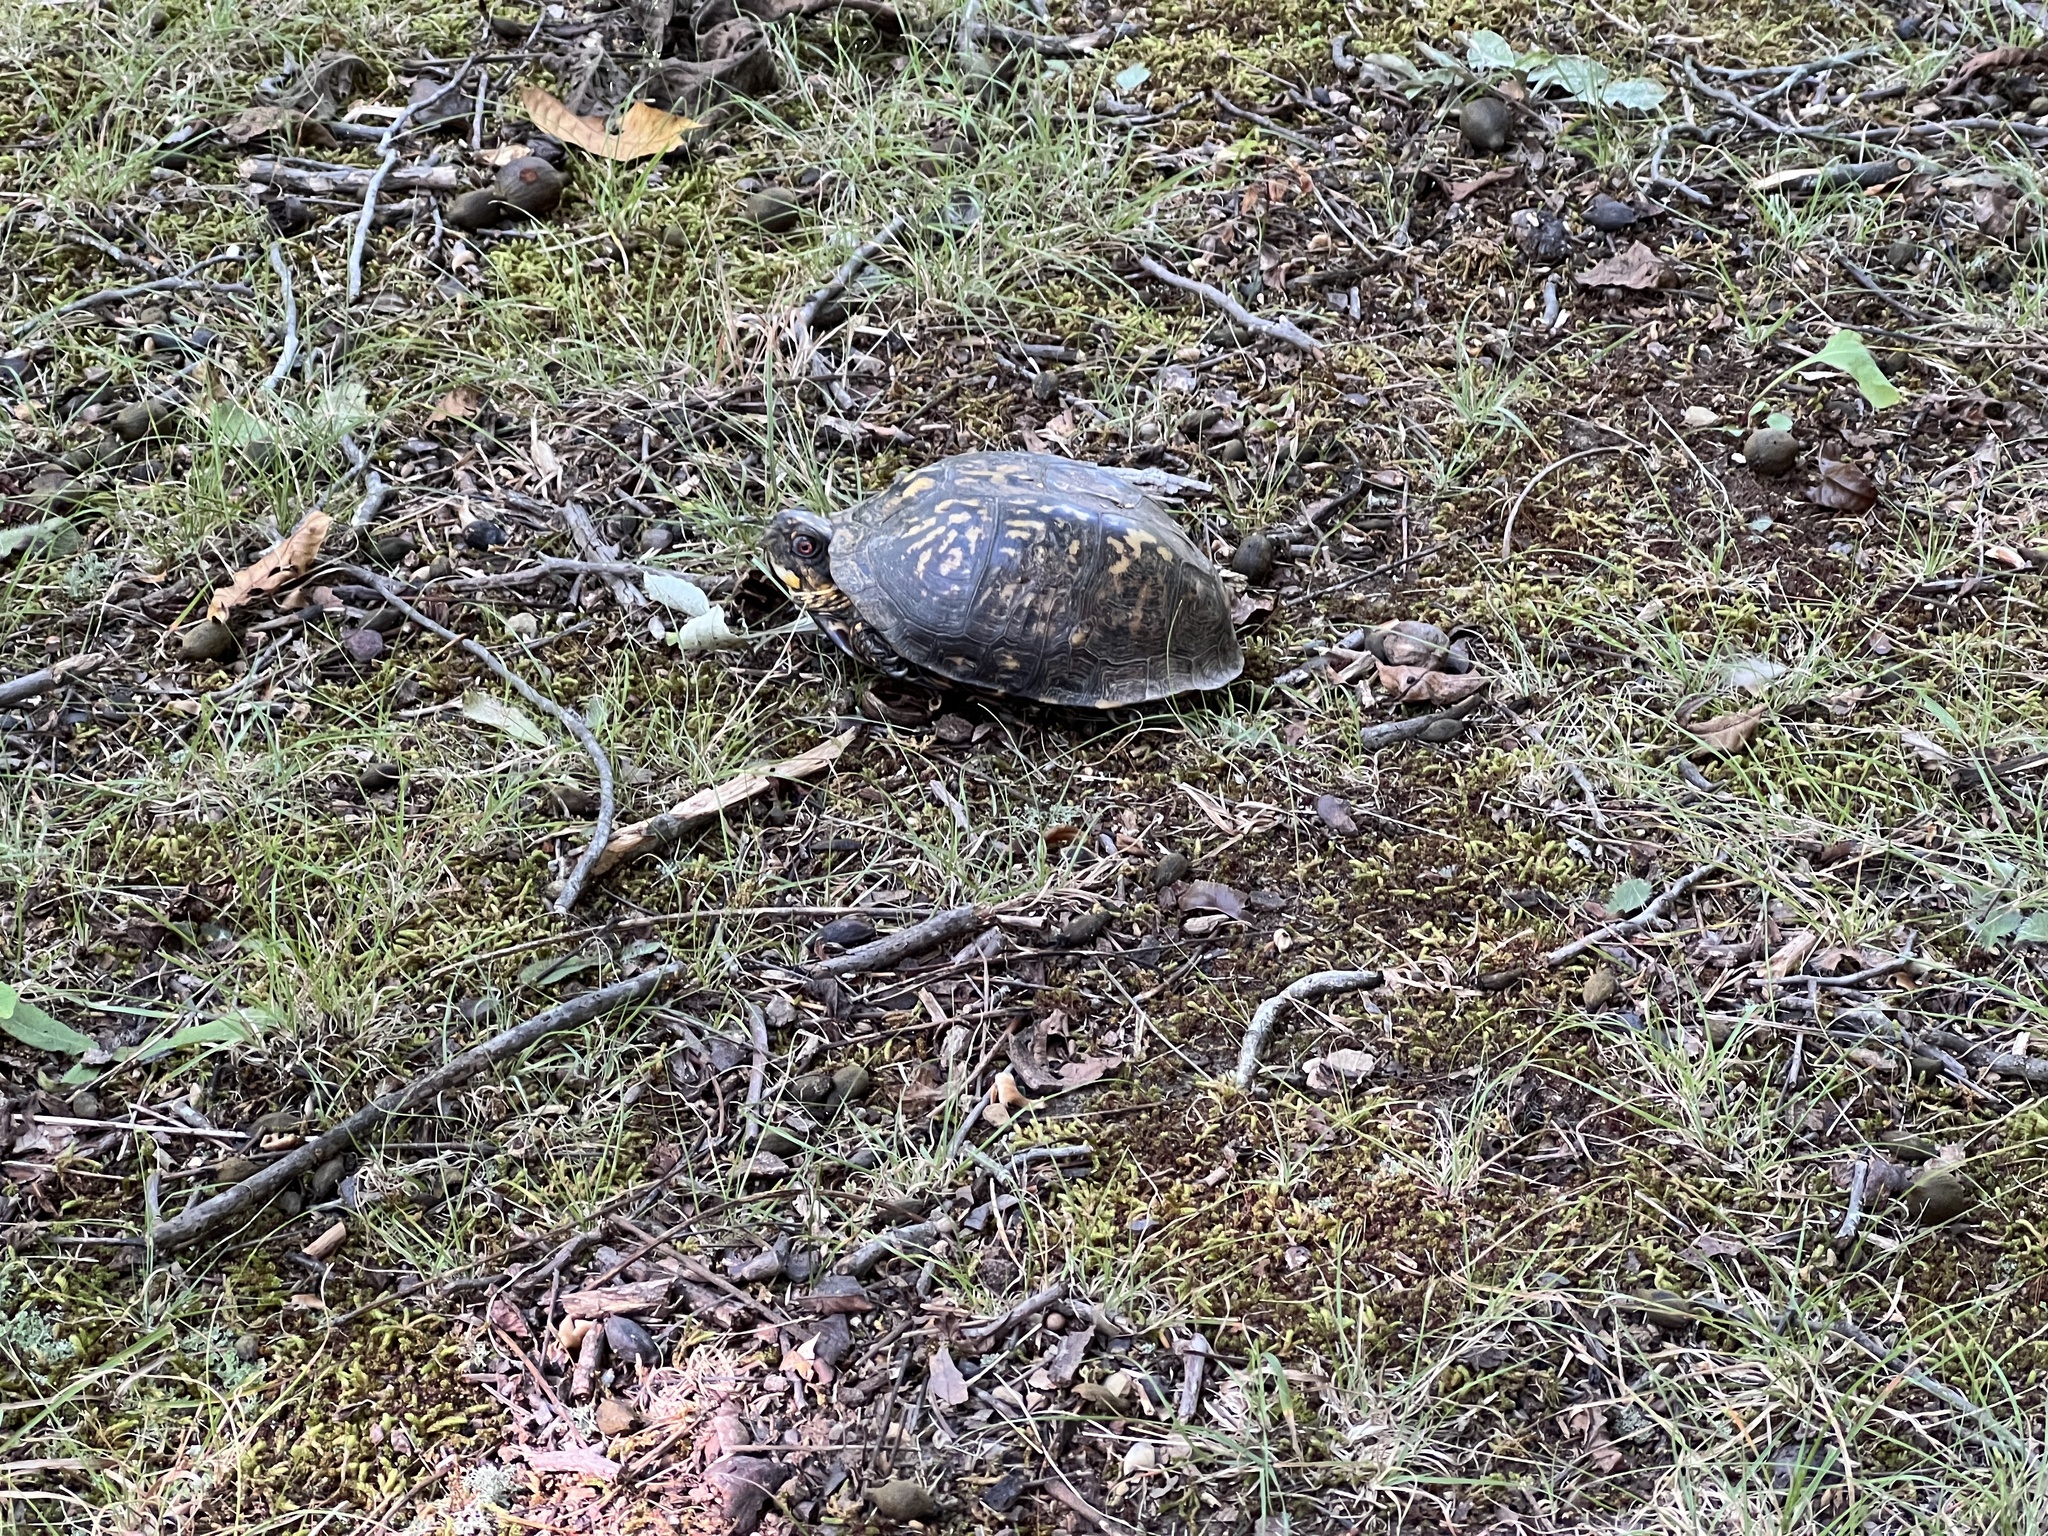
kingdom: Animalia
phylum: Chordata
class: Testudines
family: Emydidae
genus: Terrapene
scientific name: Terrapene carolina
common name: Common box turtle
